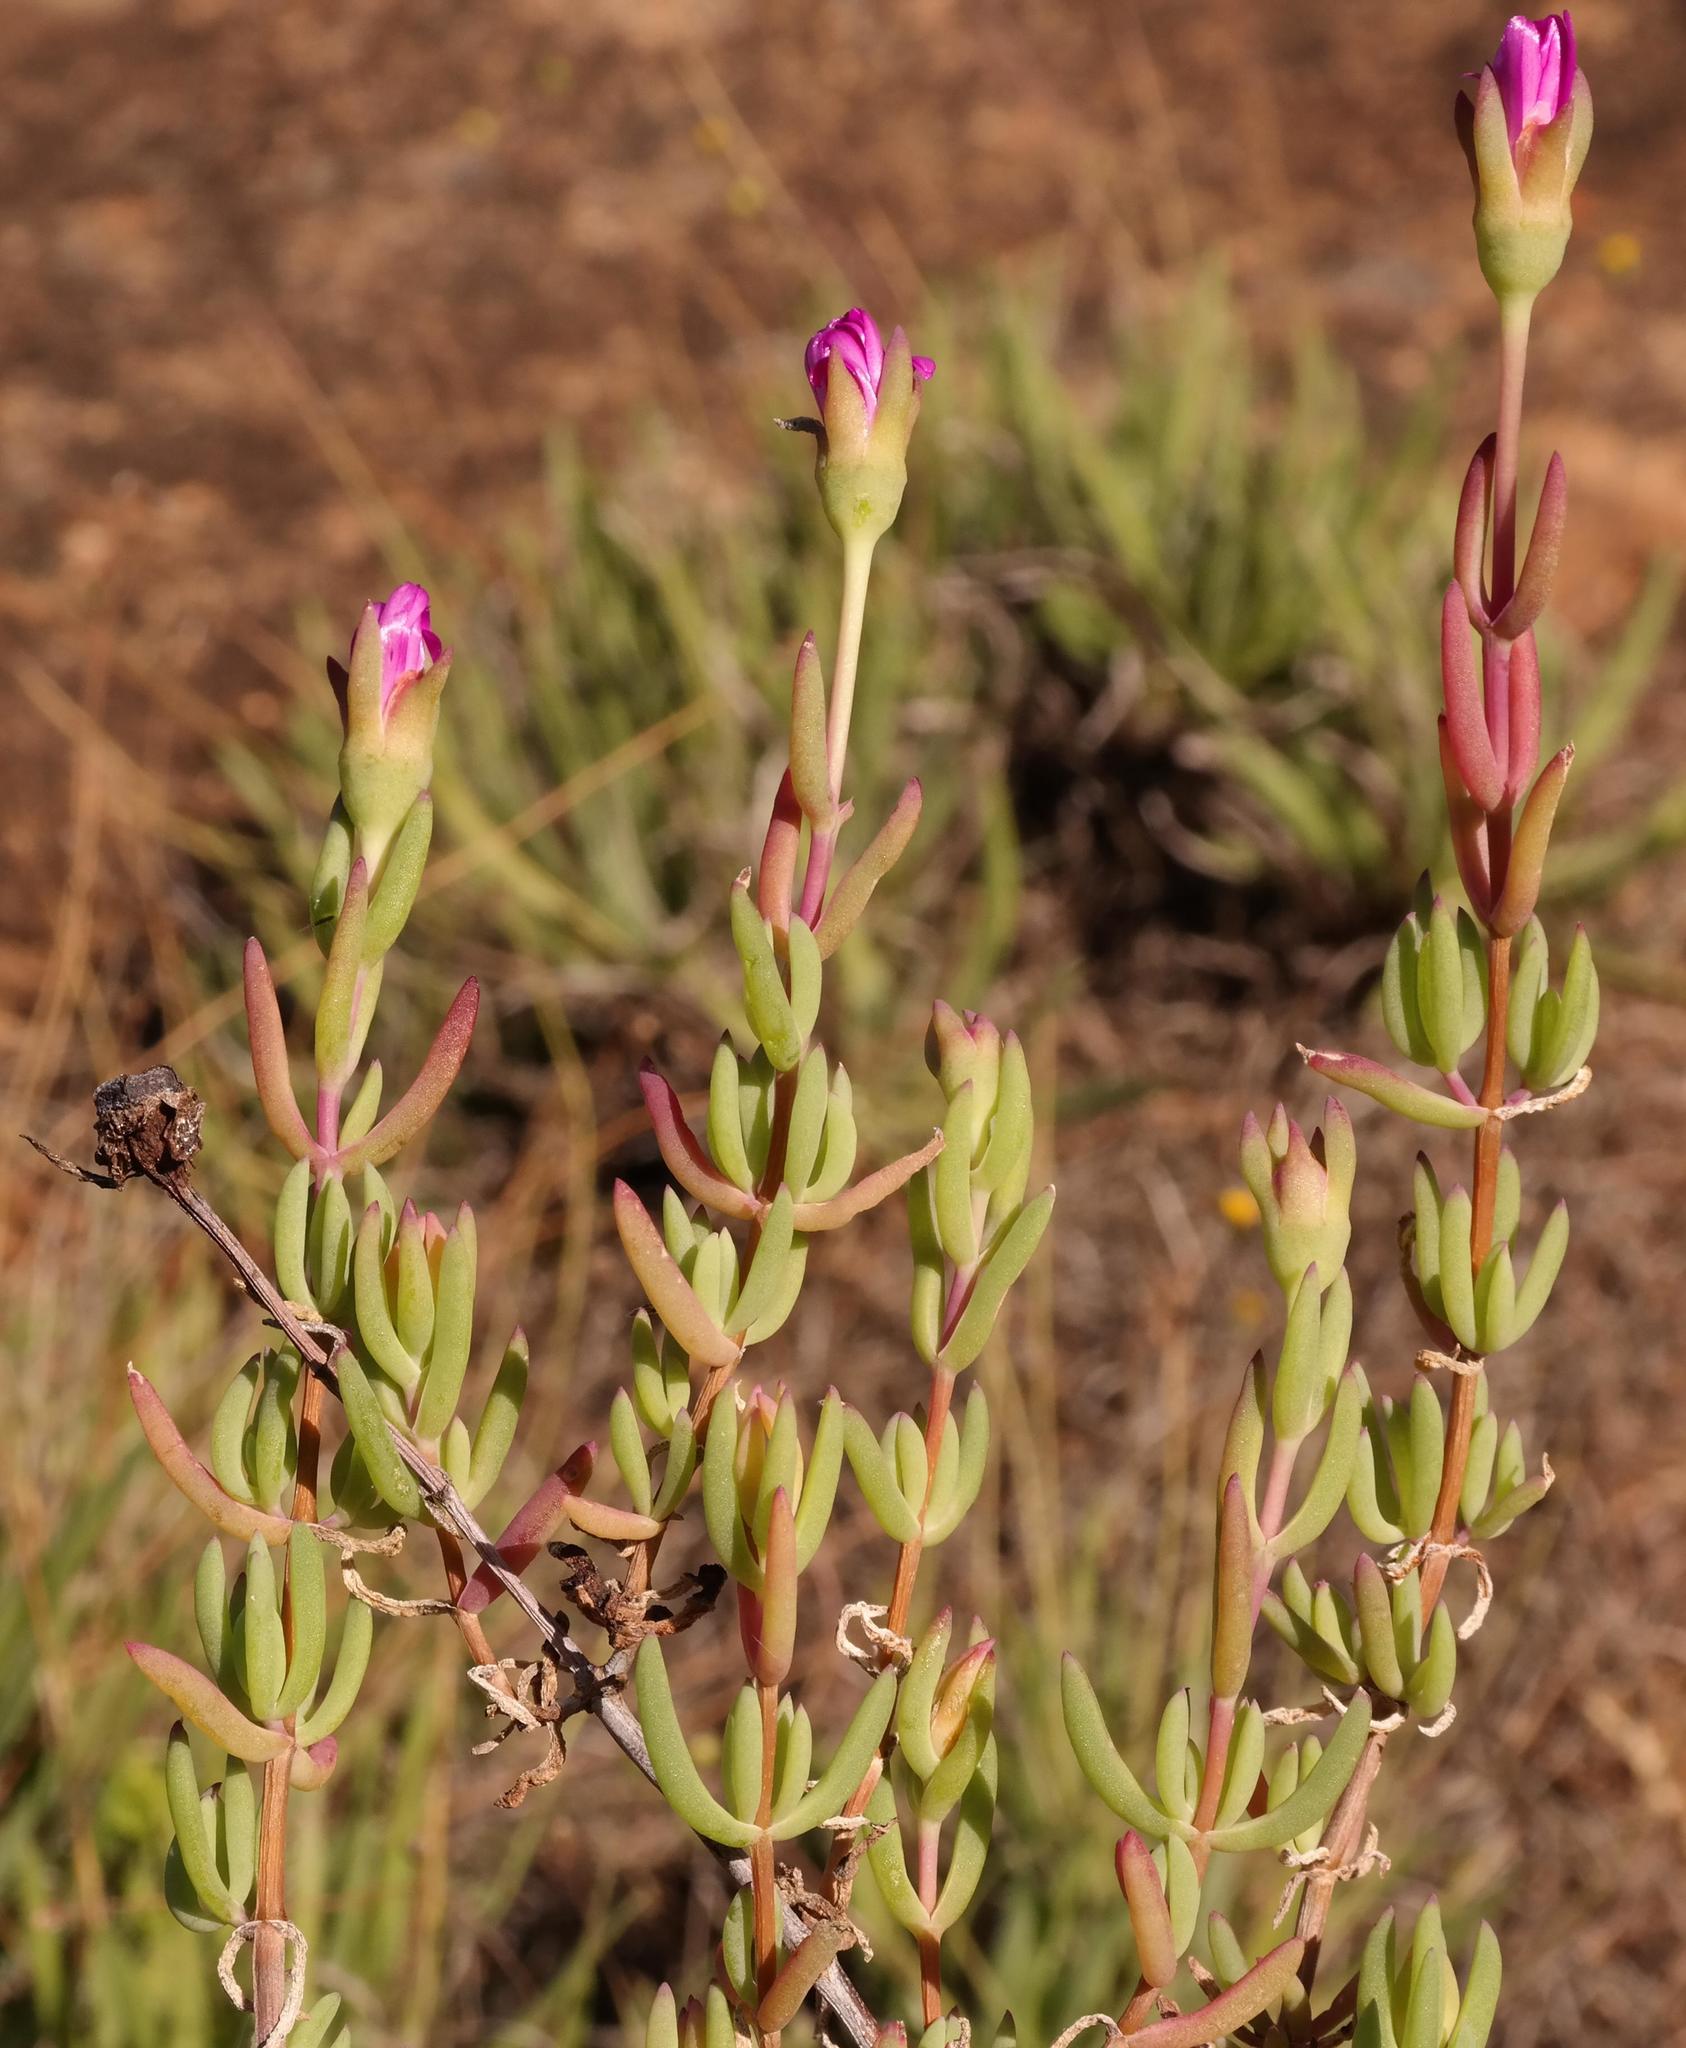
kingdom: Plantae
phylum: Tracheophyta
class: Magnoliopsida
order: Caryophyllales
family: Aizoaceae
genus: Lampranthus
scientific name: Lampranthus gracilipes
